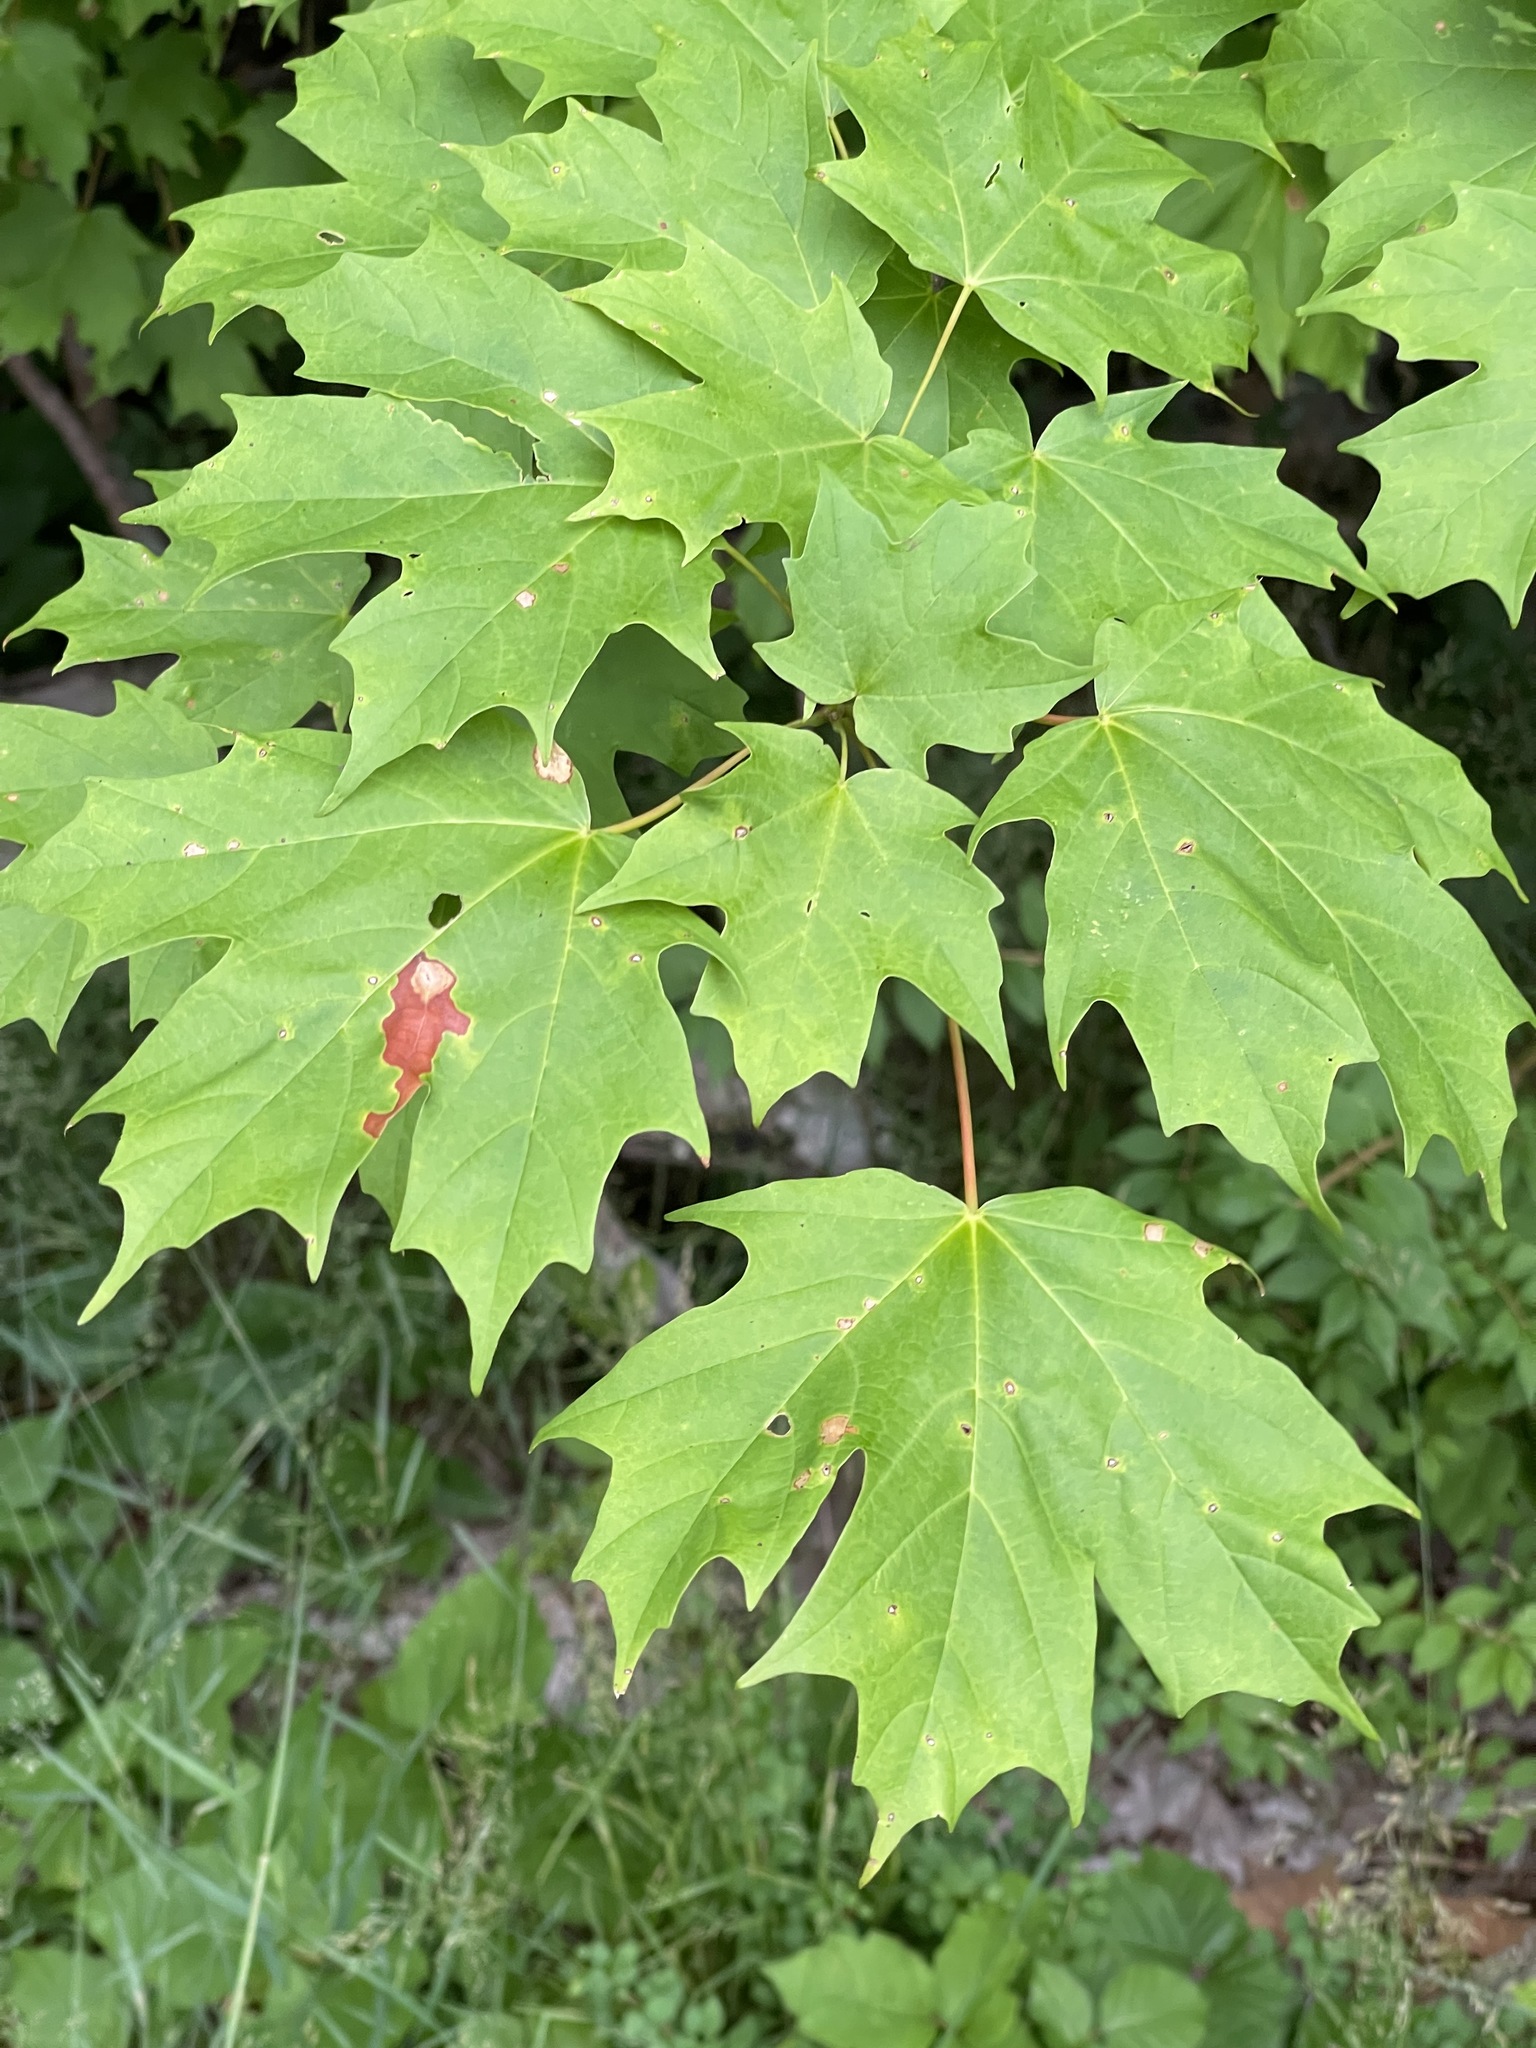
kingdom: Plantae
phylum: Tracheophyta
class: Magnoliopsida
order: Sapindales
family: Sapindaceae
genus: Acer
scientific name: Acer saccharum
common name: Sugar maple
